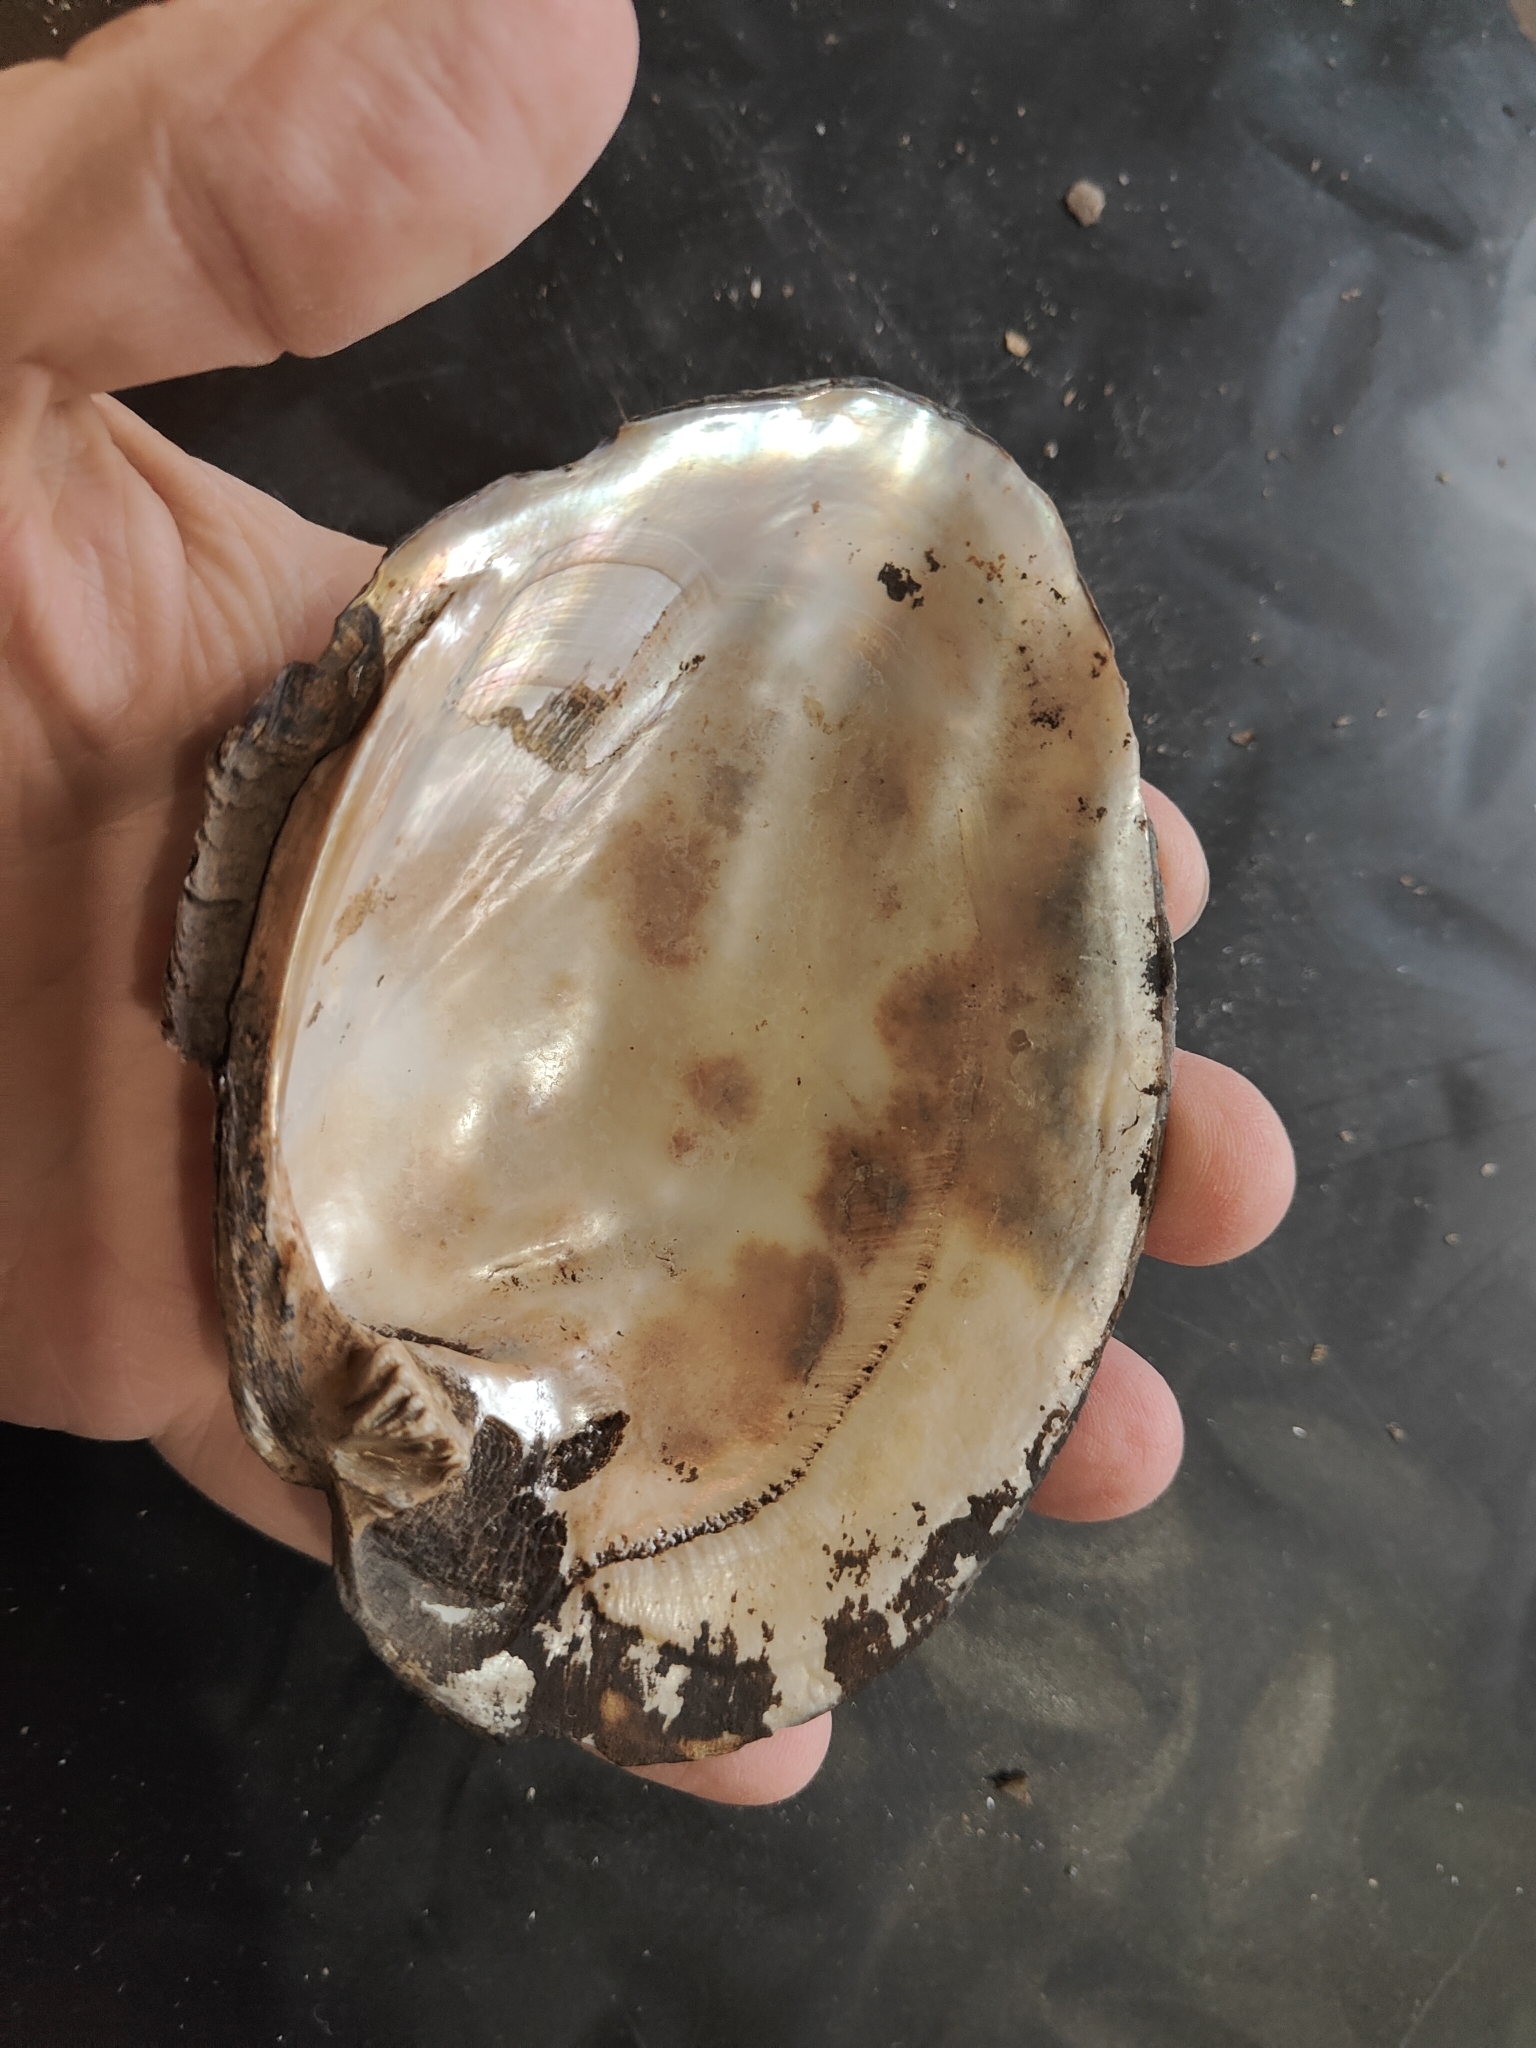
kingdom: Animalia
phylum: Mollusca
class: Bivalvia
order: Unionida
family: Unionidae
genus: Amblema
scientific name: Amblema plicata
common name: Threeridge
